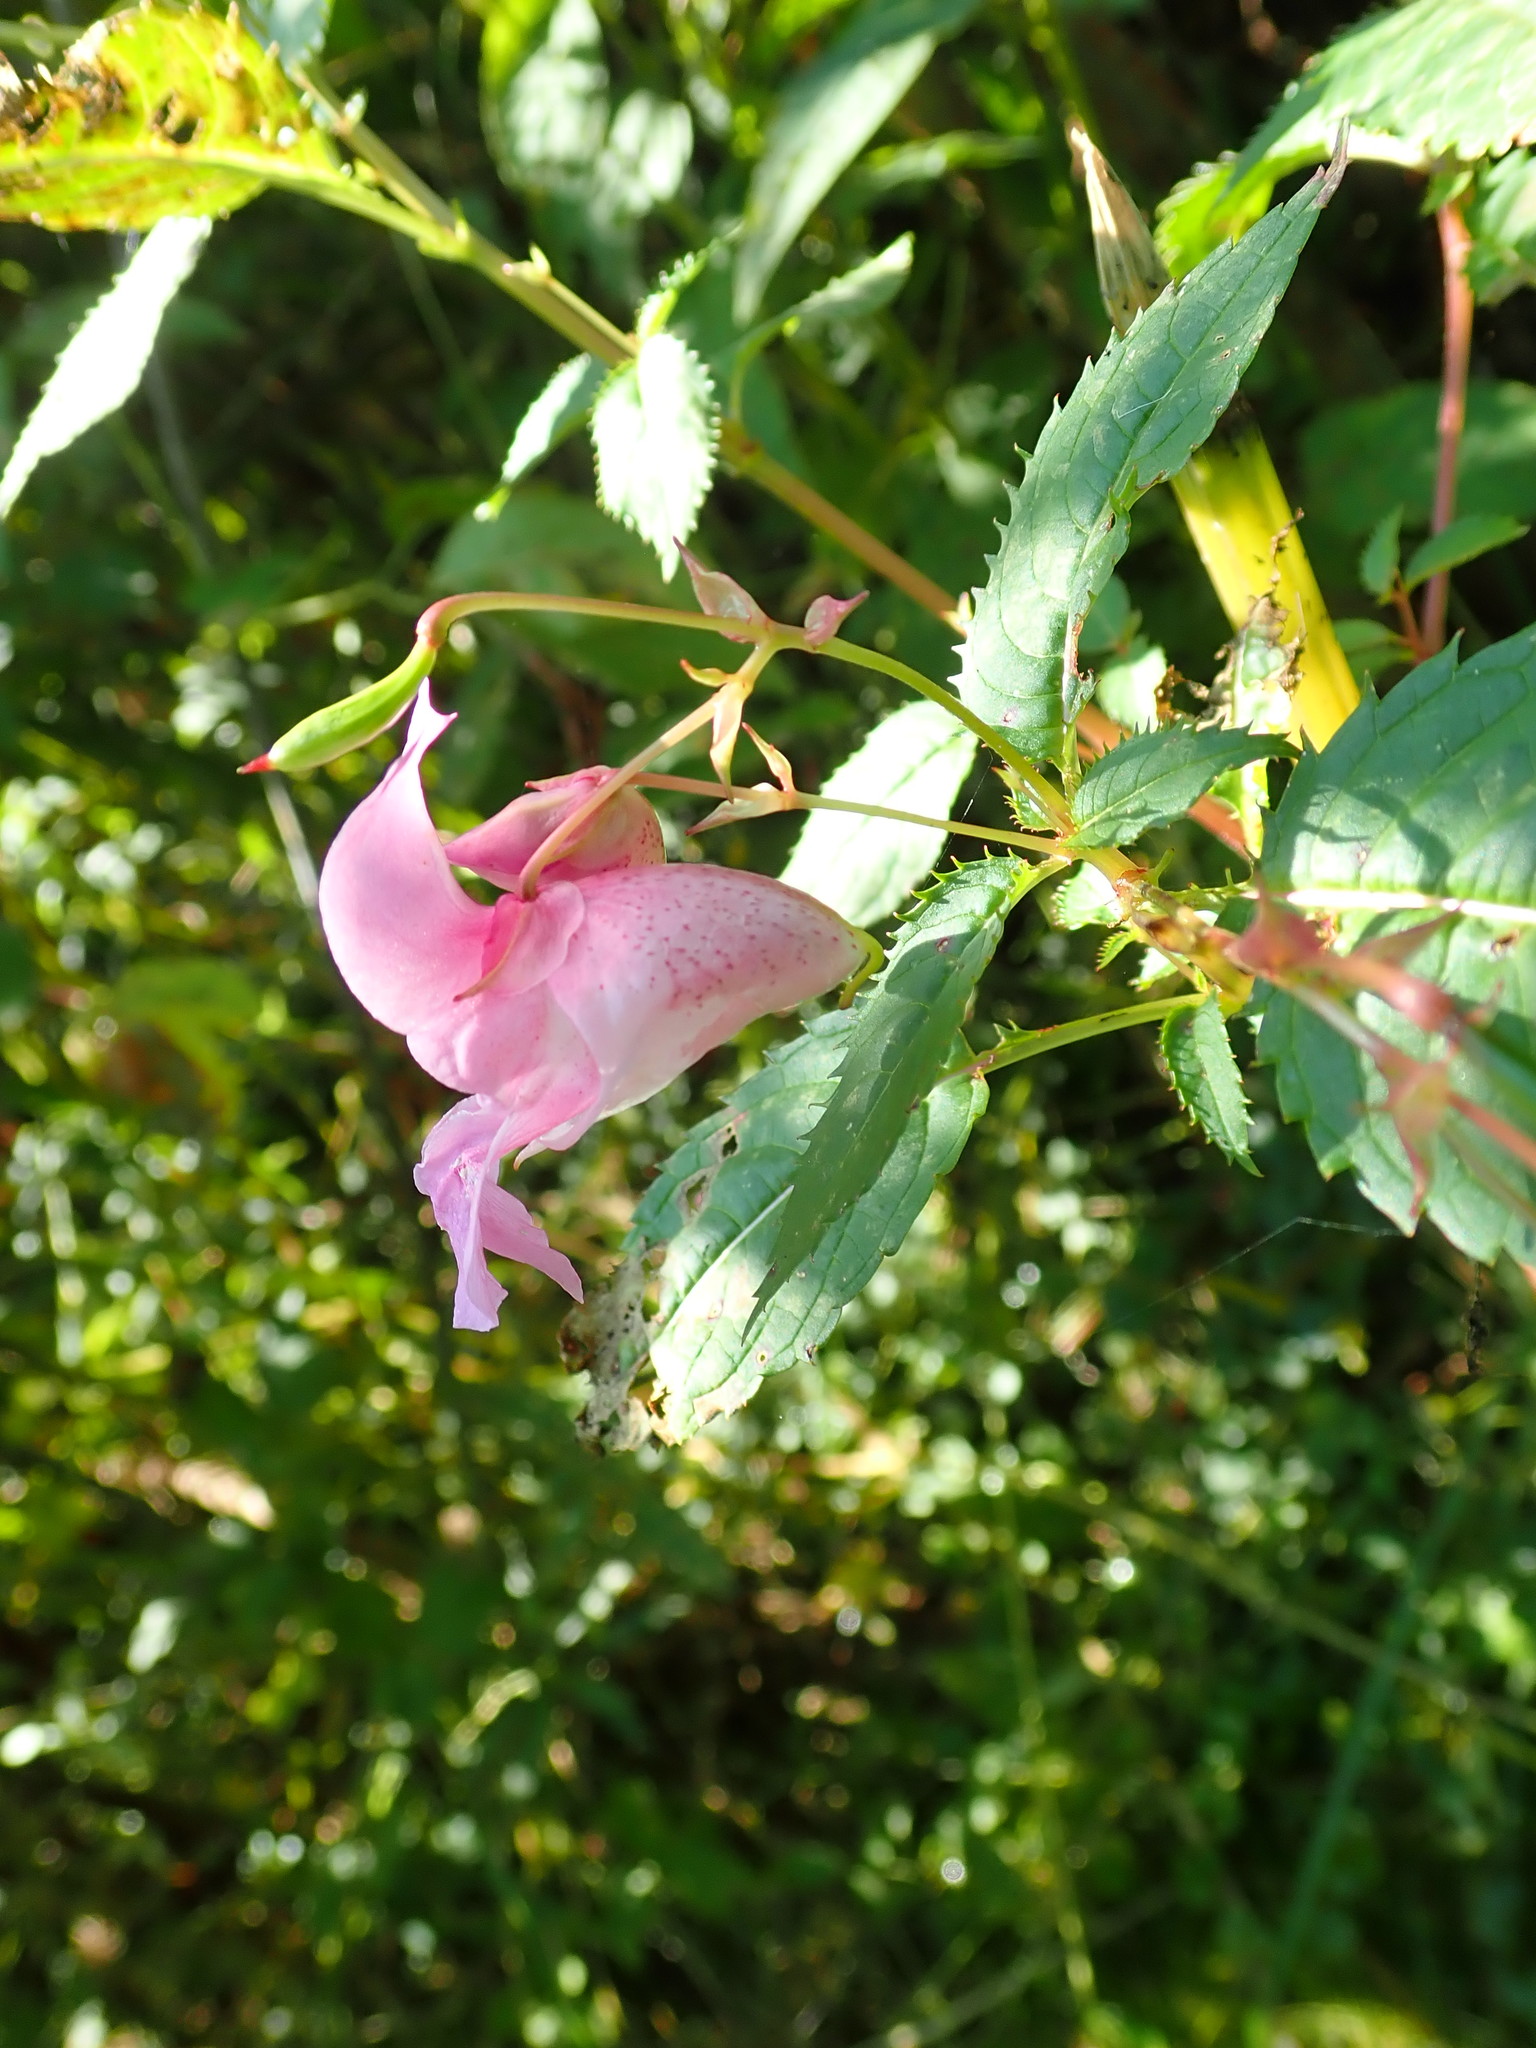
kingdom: Plantae
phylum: Tracheophyta
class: Magnoliopsida
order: Ericales
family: Balsaminaceae
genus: Impatiens
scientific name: Impatiens glandulifera
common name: Himalayan balsam
